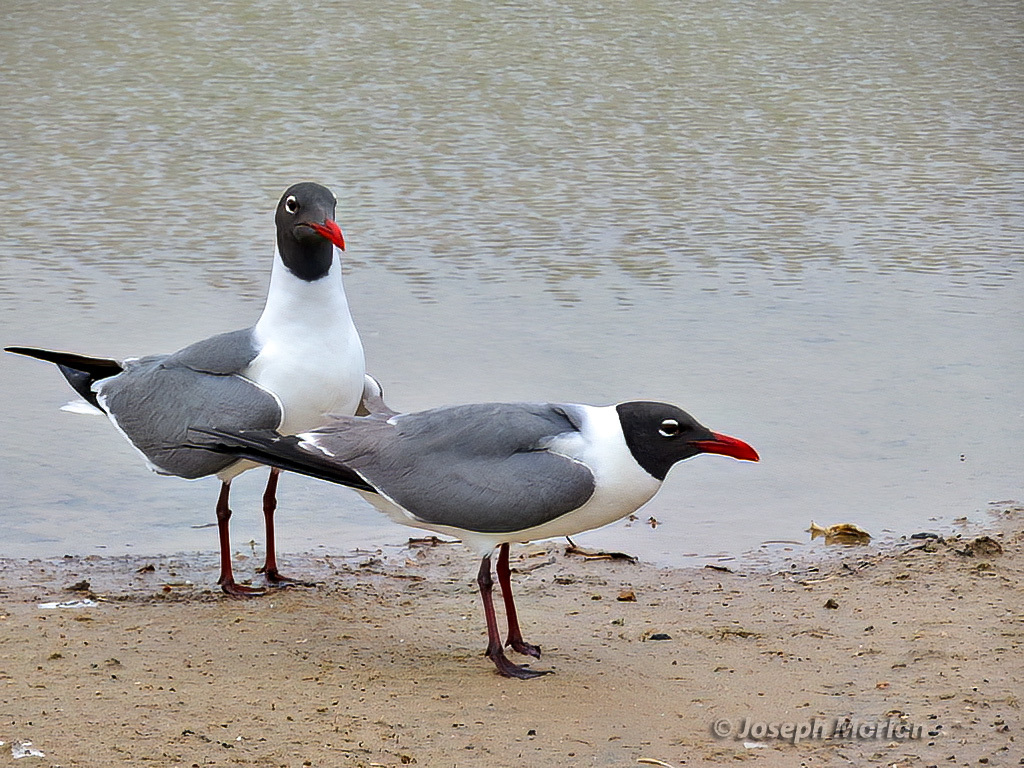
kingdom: Animalia
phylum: Chordata
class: Aves
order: Charadriiformes
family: Laridae
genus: Leucophaeus
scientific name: Leucophaeus atricilla
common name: Laughing gull
